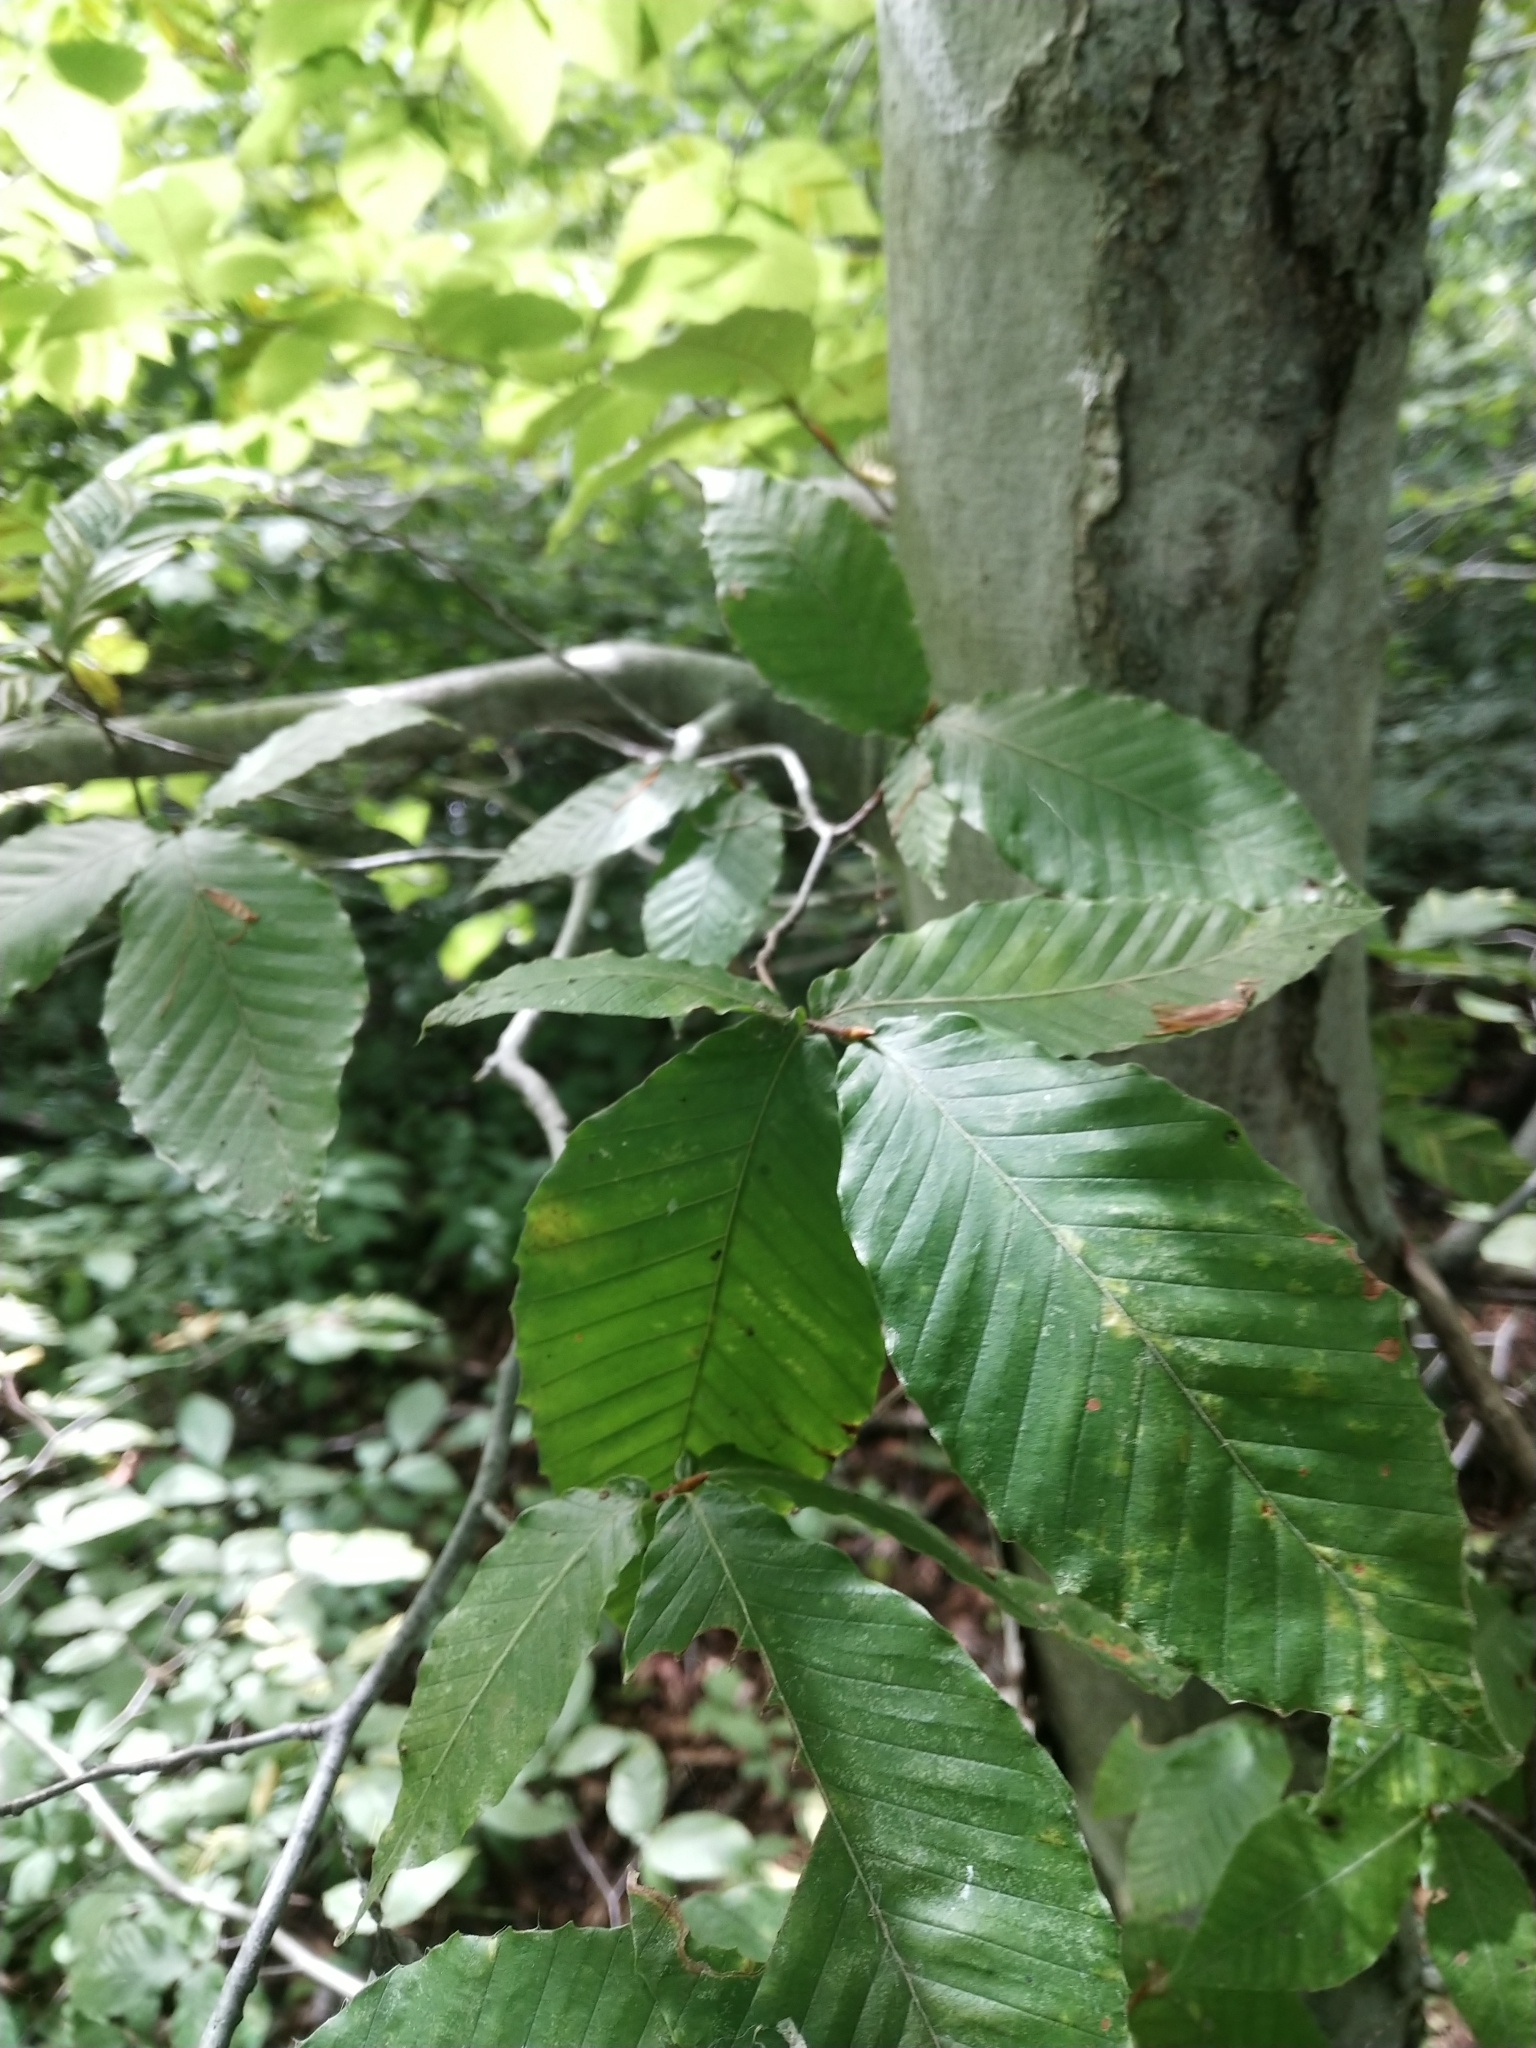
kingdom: Plantae
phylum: Tracheophyta
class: Magnoliopsida
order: Fagales
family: Fagaceae
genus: Fagus
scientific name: Fagus grandifolia
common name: American beech
